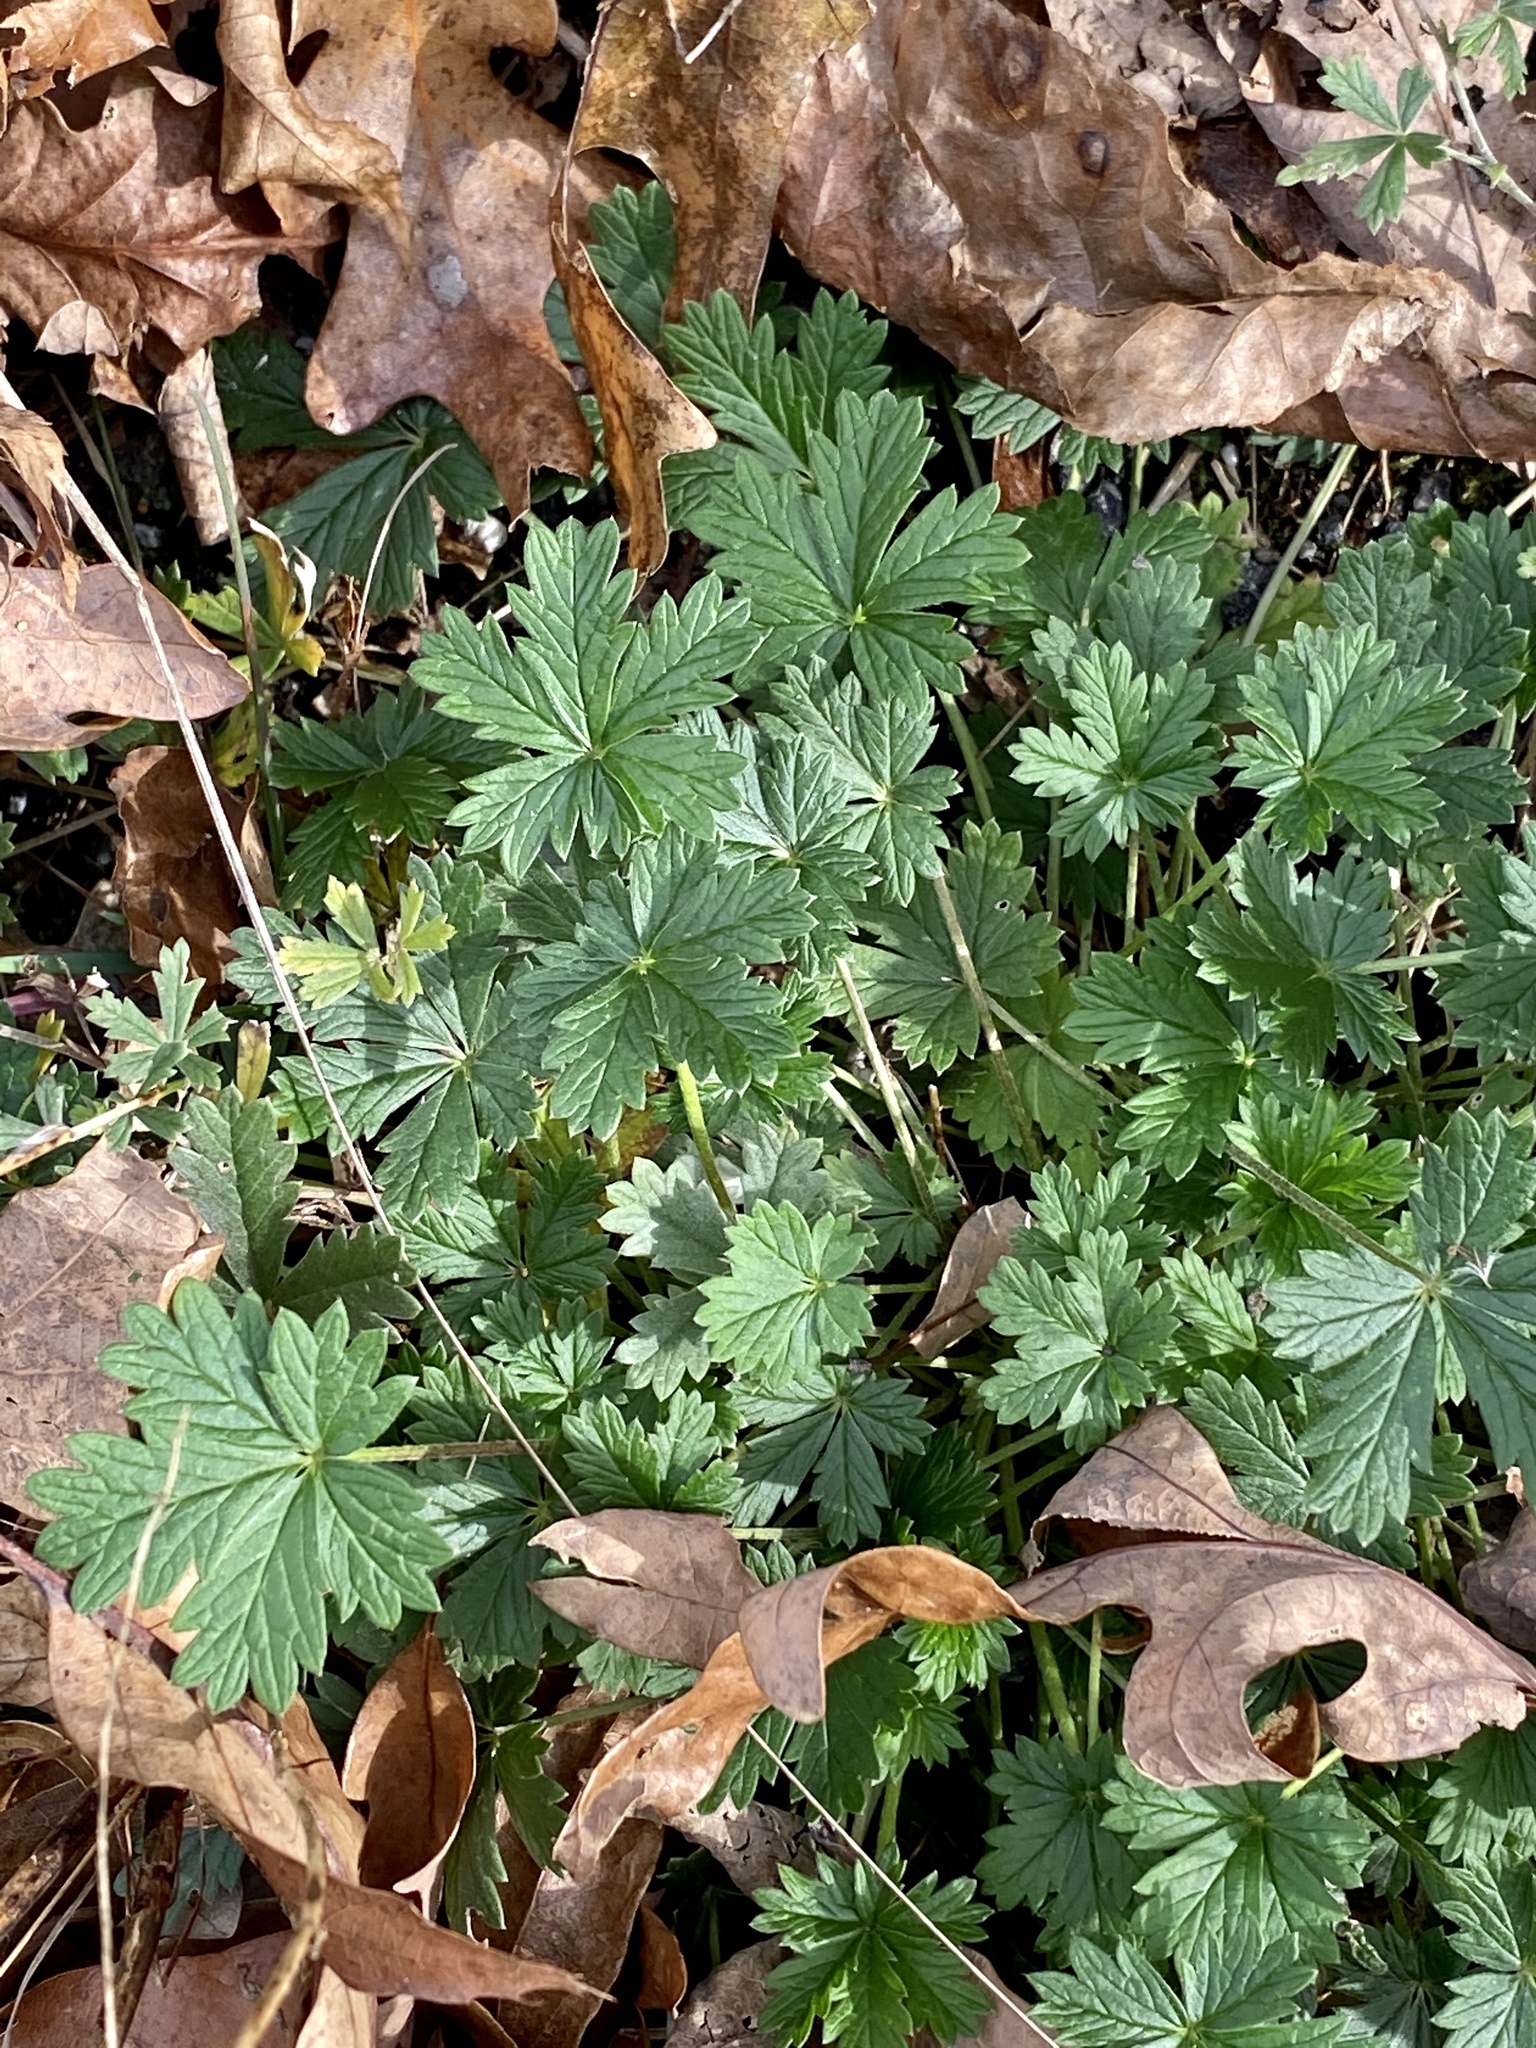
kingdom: Plantae
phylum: Tracheophyta
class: Magnoliopsida
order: Rosales
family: Rosaceae
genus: Potentilla
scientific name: Potentilla argentea
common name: Hoary cinquefoil
